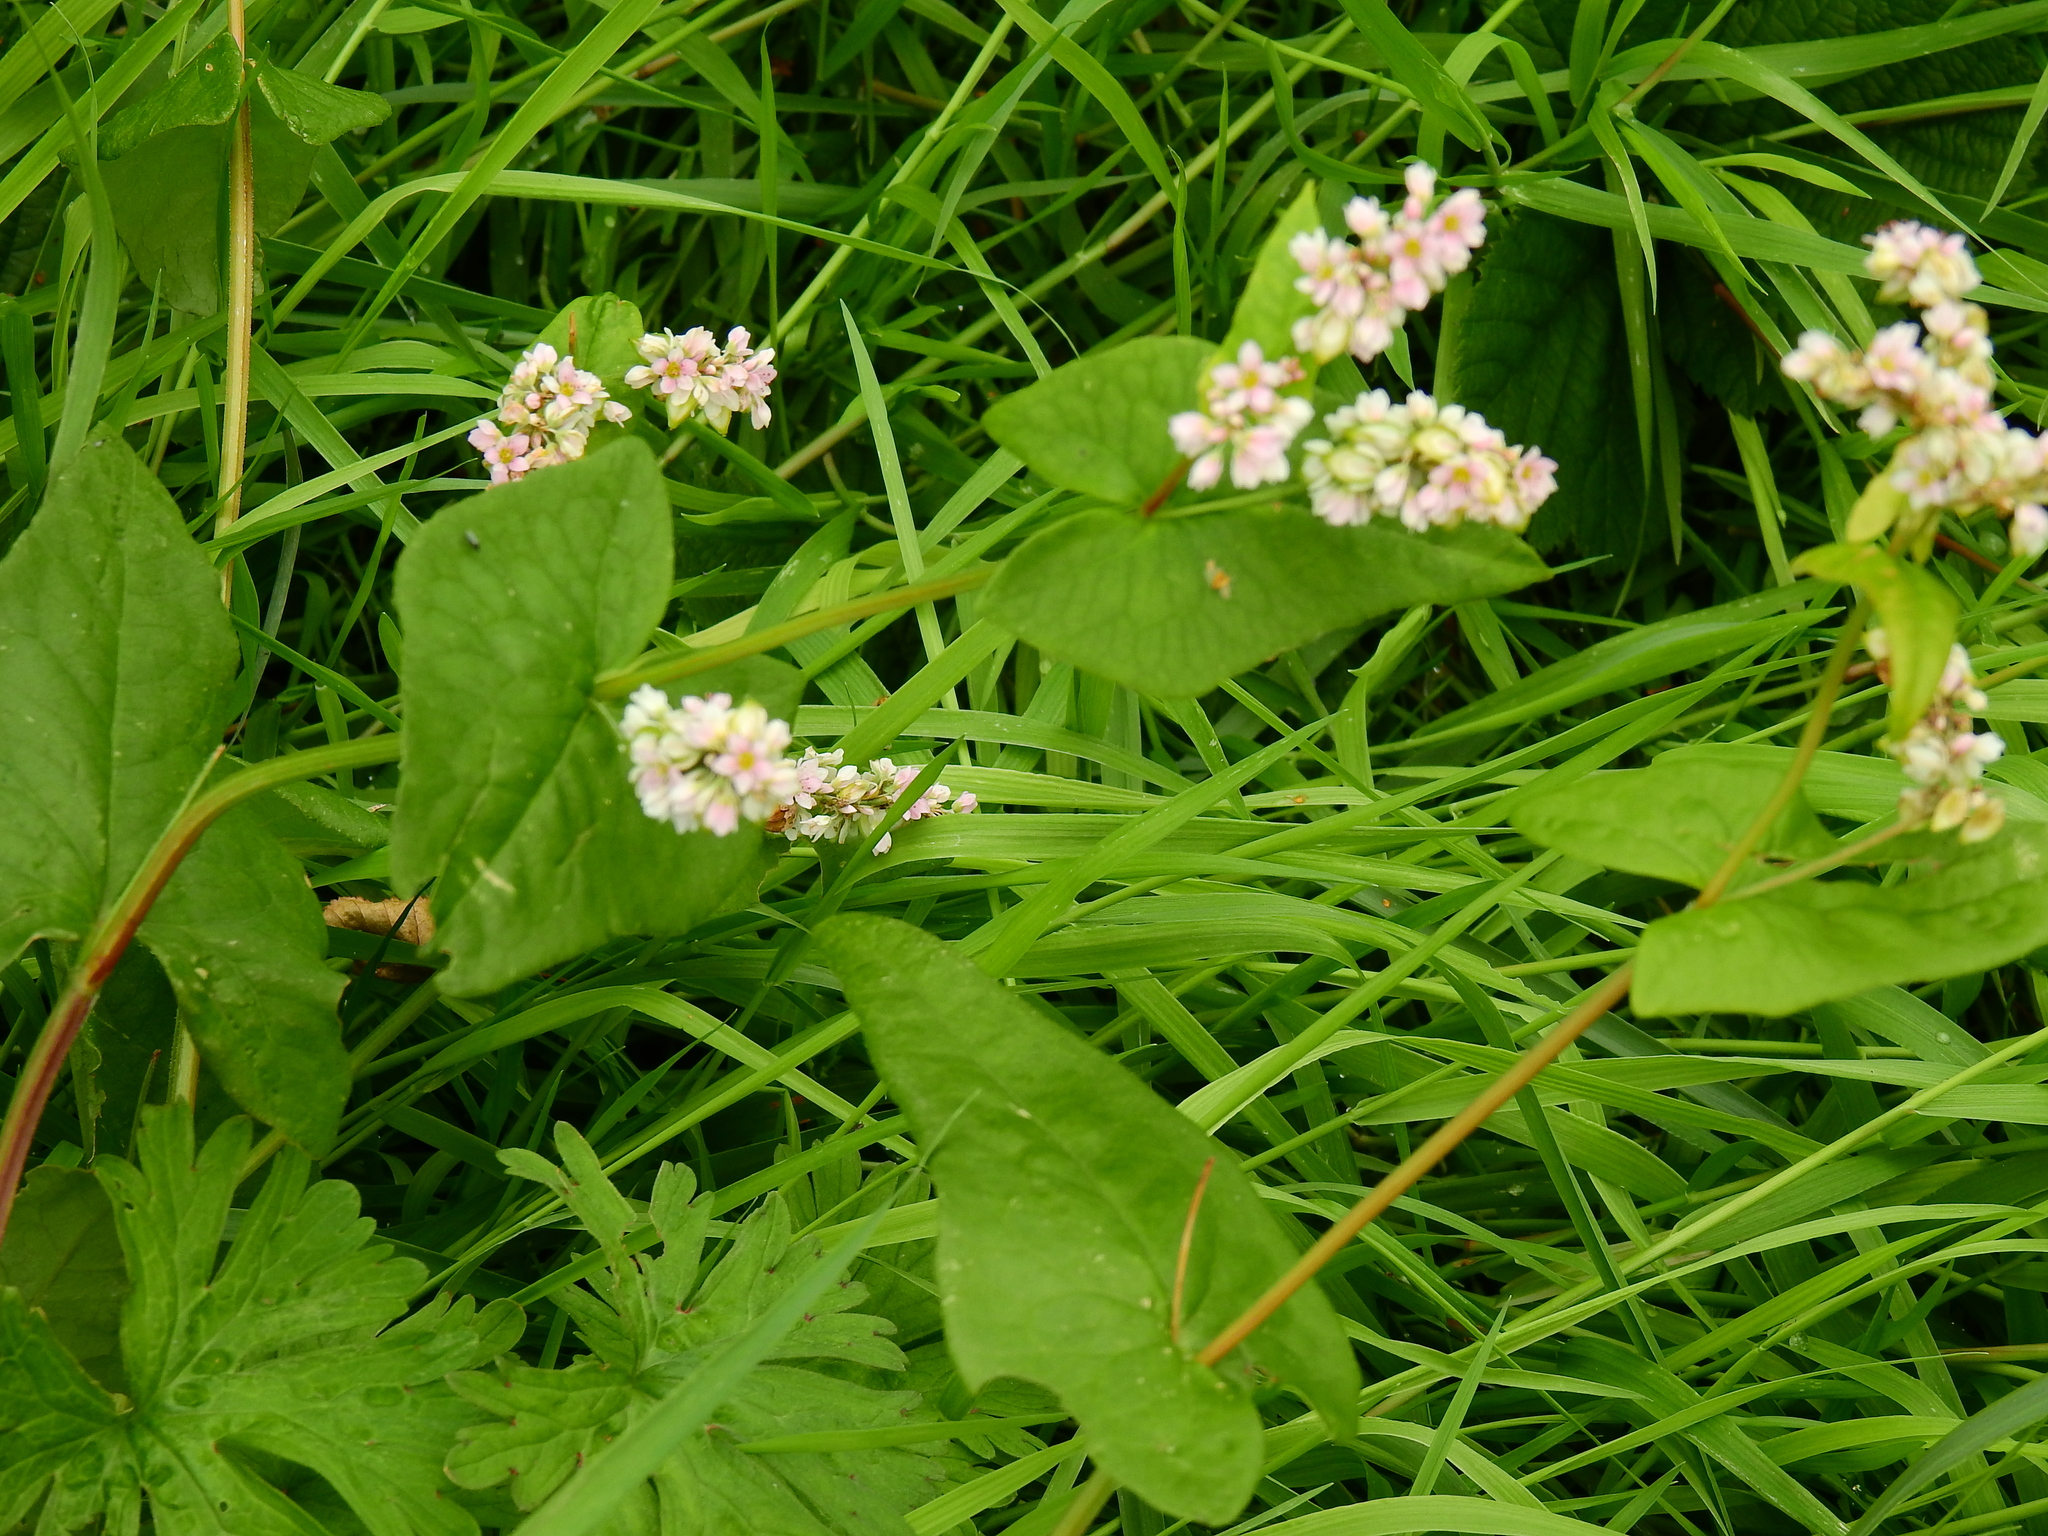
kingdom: Plantae
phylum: Tracheophyta
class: Magnoliopsida
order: Caryophyllales
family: Polygonaceae
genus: Fagopyrum
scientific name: Fagopyrum esculentum
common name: Buckwheat
